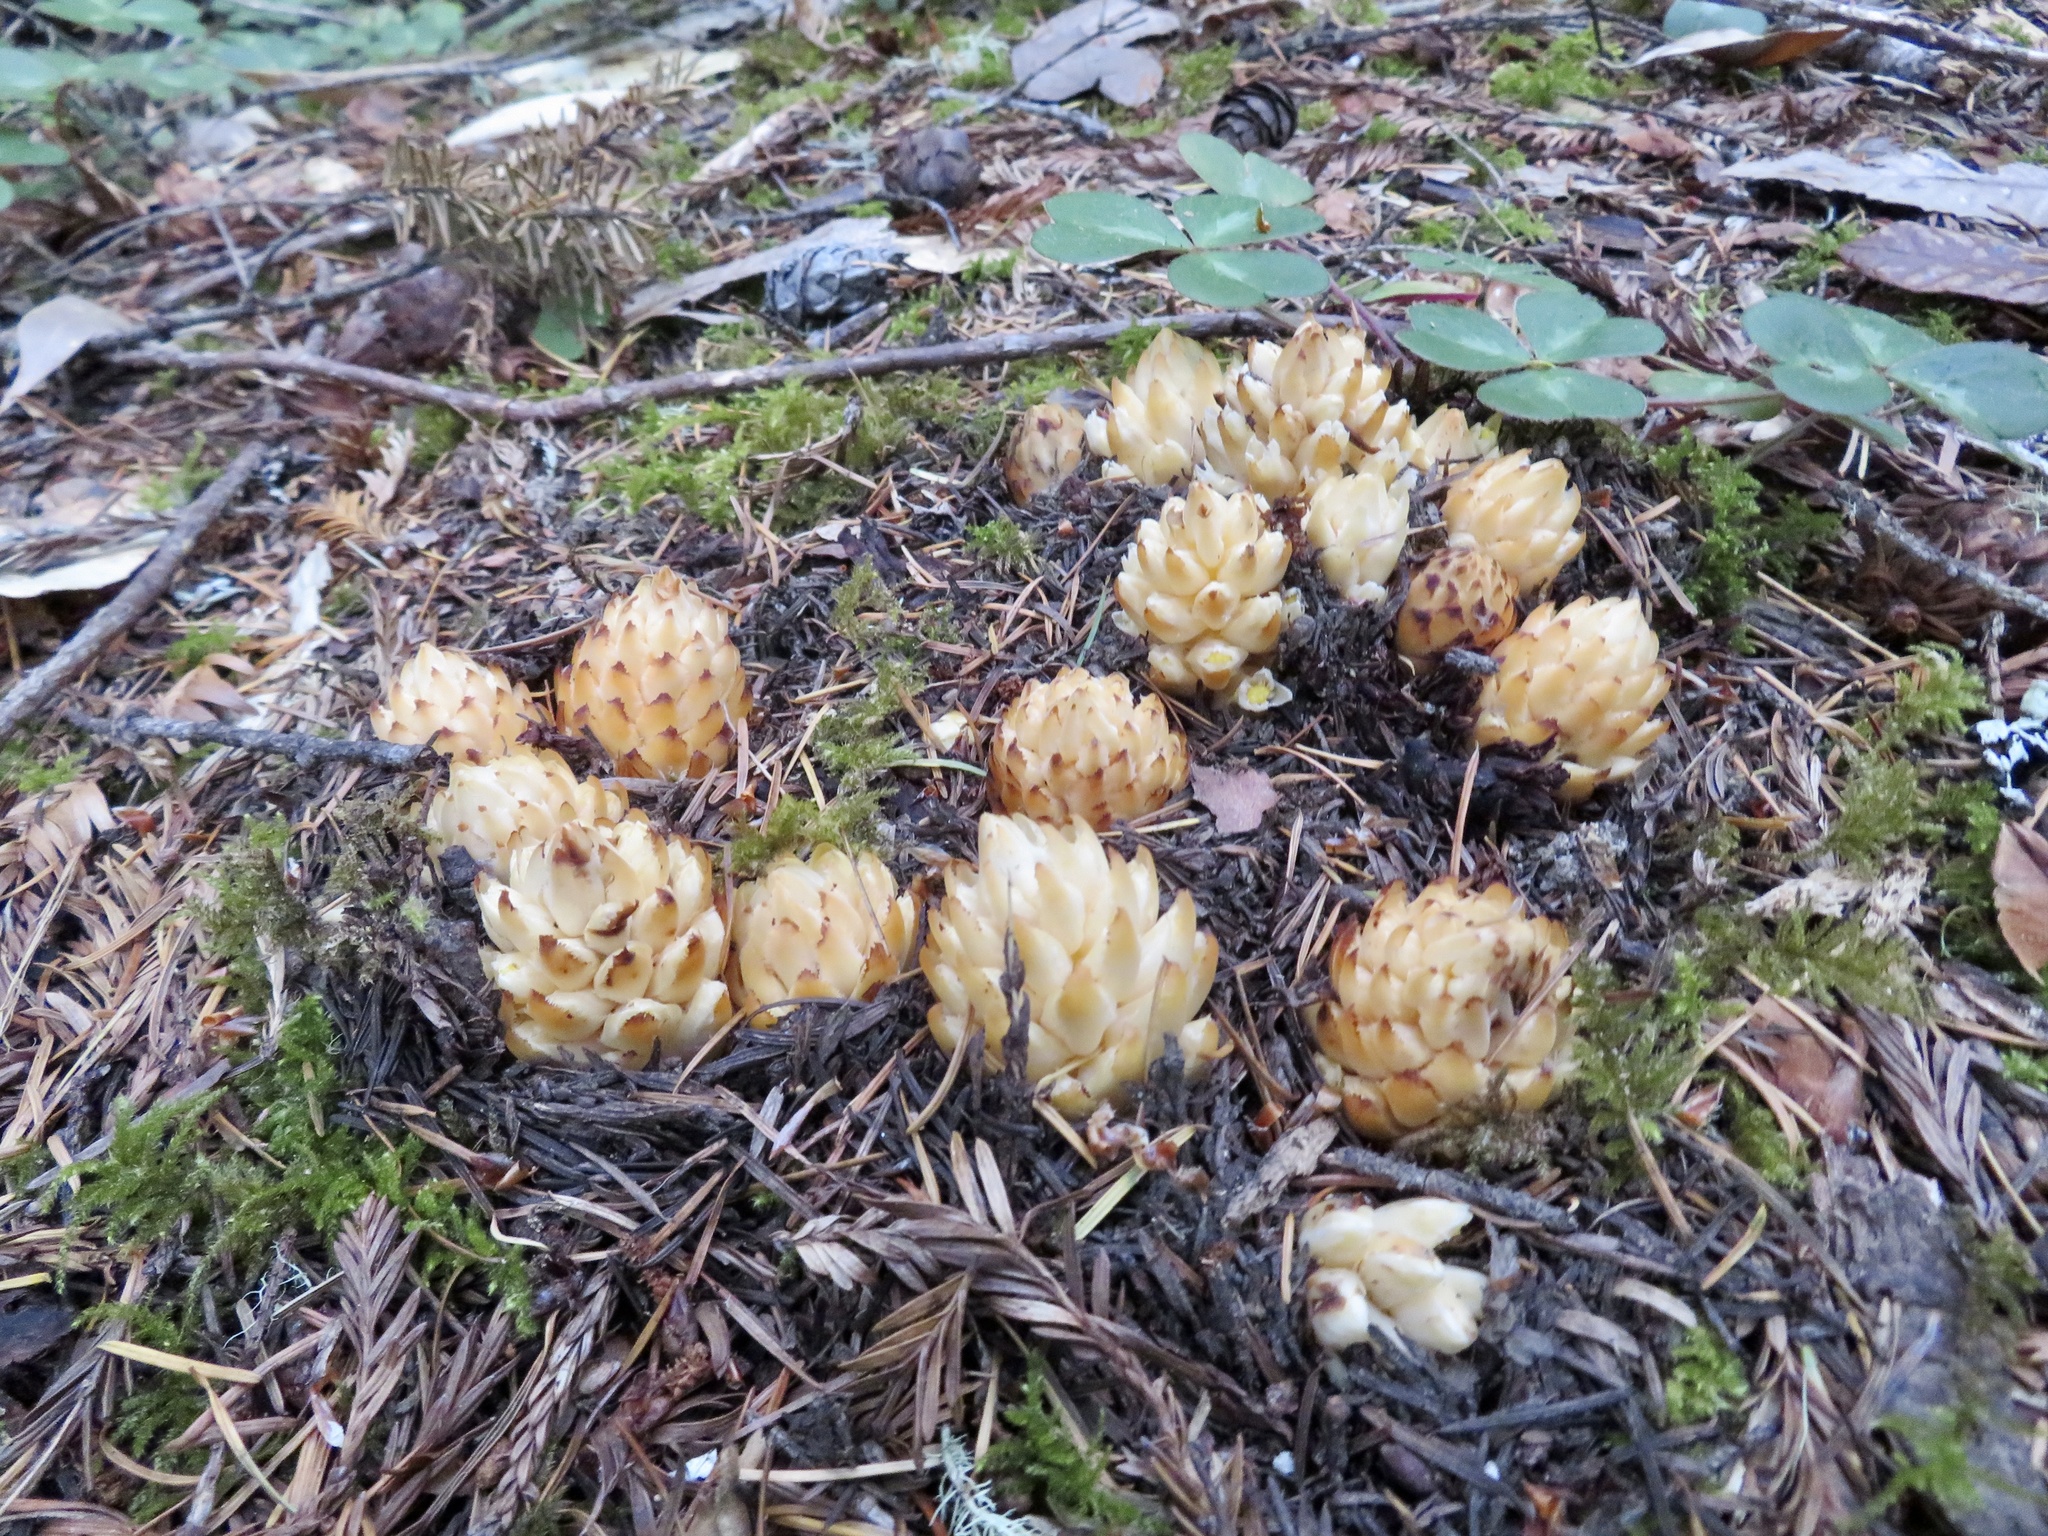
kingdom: Plantae
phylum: Tracheophyta
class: Magnoliopsida
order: Ericales
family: Ericaceae
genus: Hemitomes
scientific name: Hemitomes congestum
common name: Cone plant
